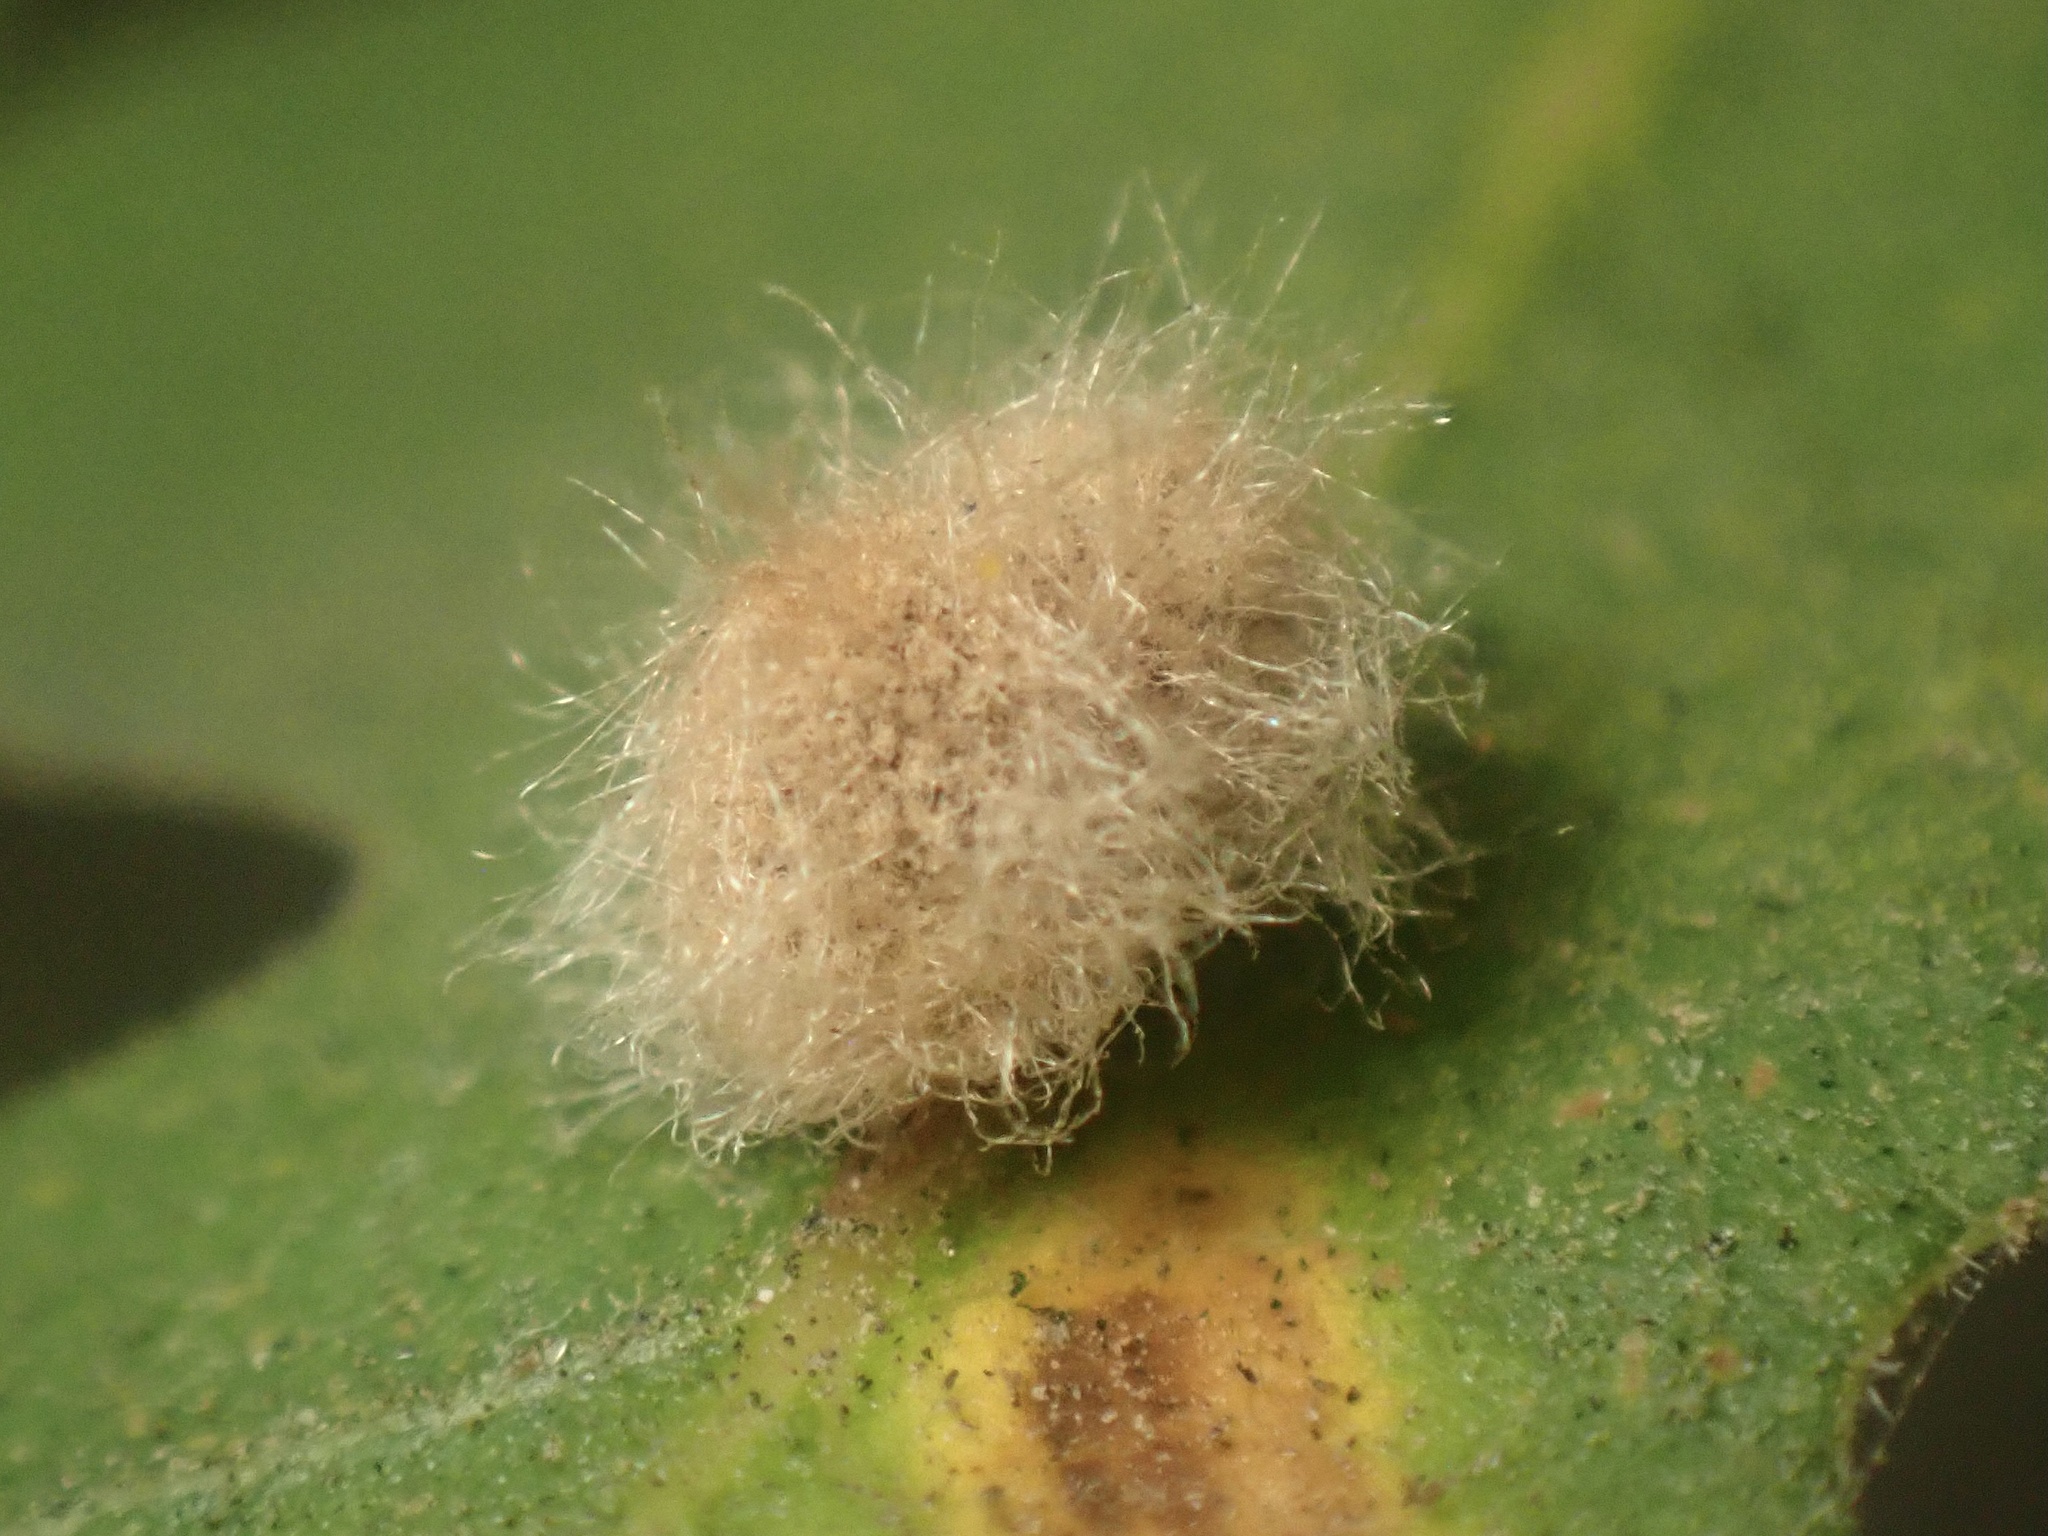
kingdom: Animalia
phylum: Arthropoda
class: Insecta
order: Hymenoptera
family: Cynipidae
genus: Andricus
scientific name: Andricus Druon fullawayi
